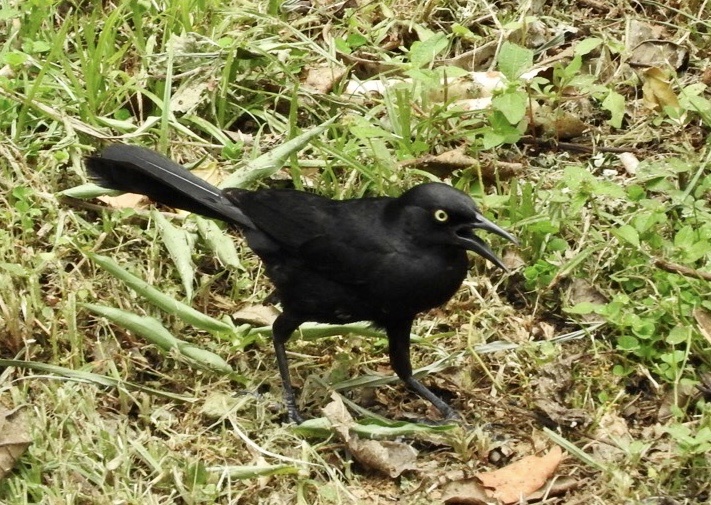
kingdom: Animalia
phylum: Chordata
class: Aves
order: Passeriformes
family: Icteridae
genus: Quiscalus
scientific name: Quiscalus niger
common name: Greater antillean grackle
